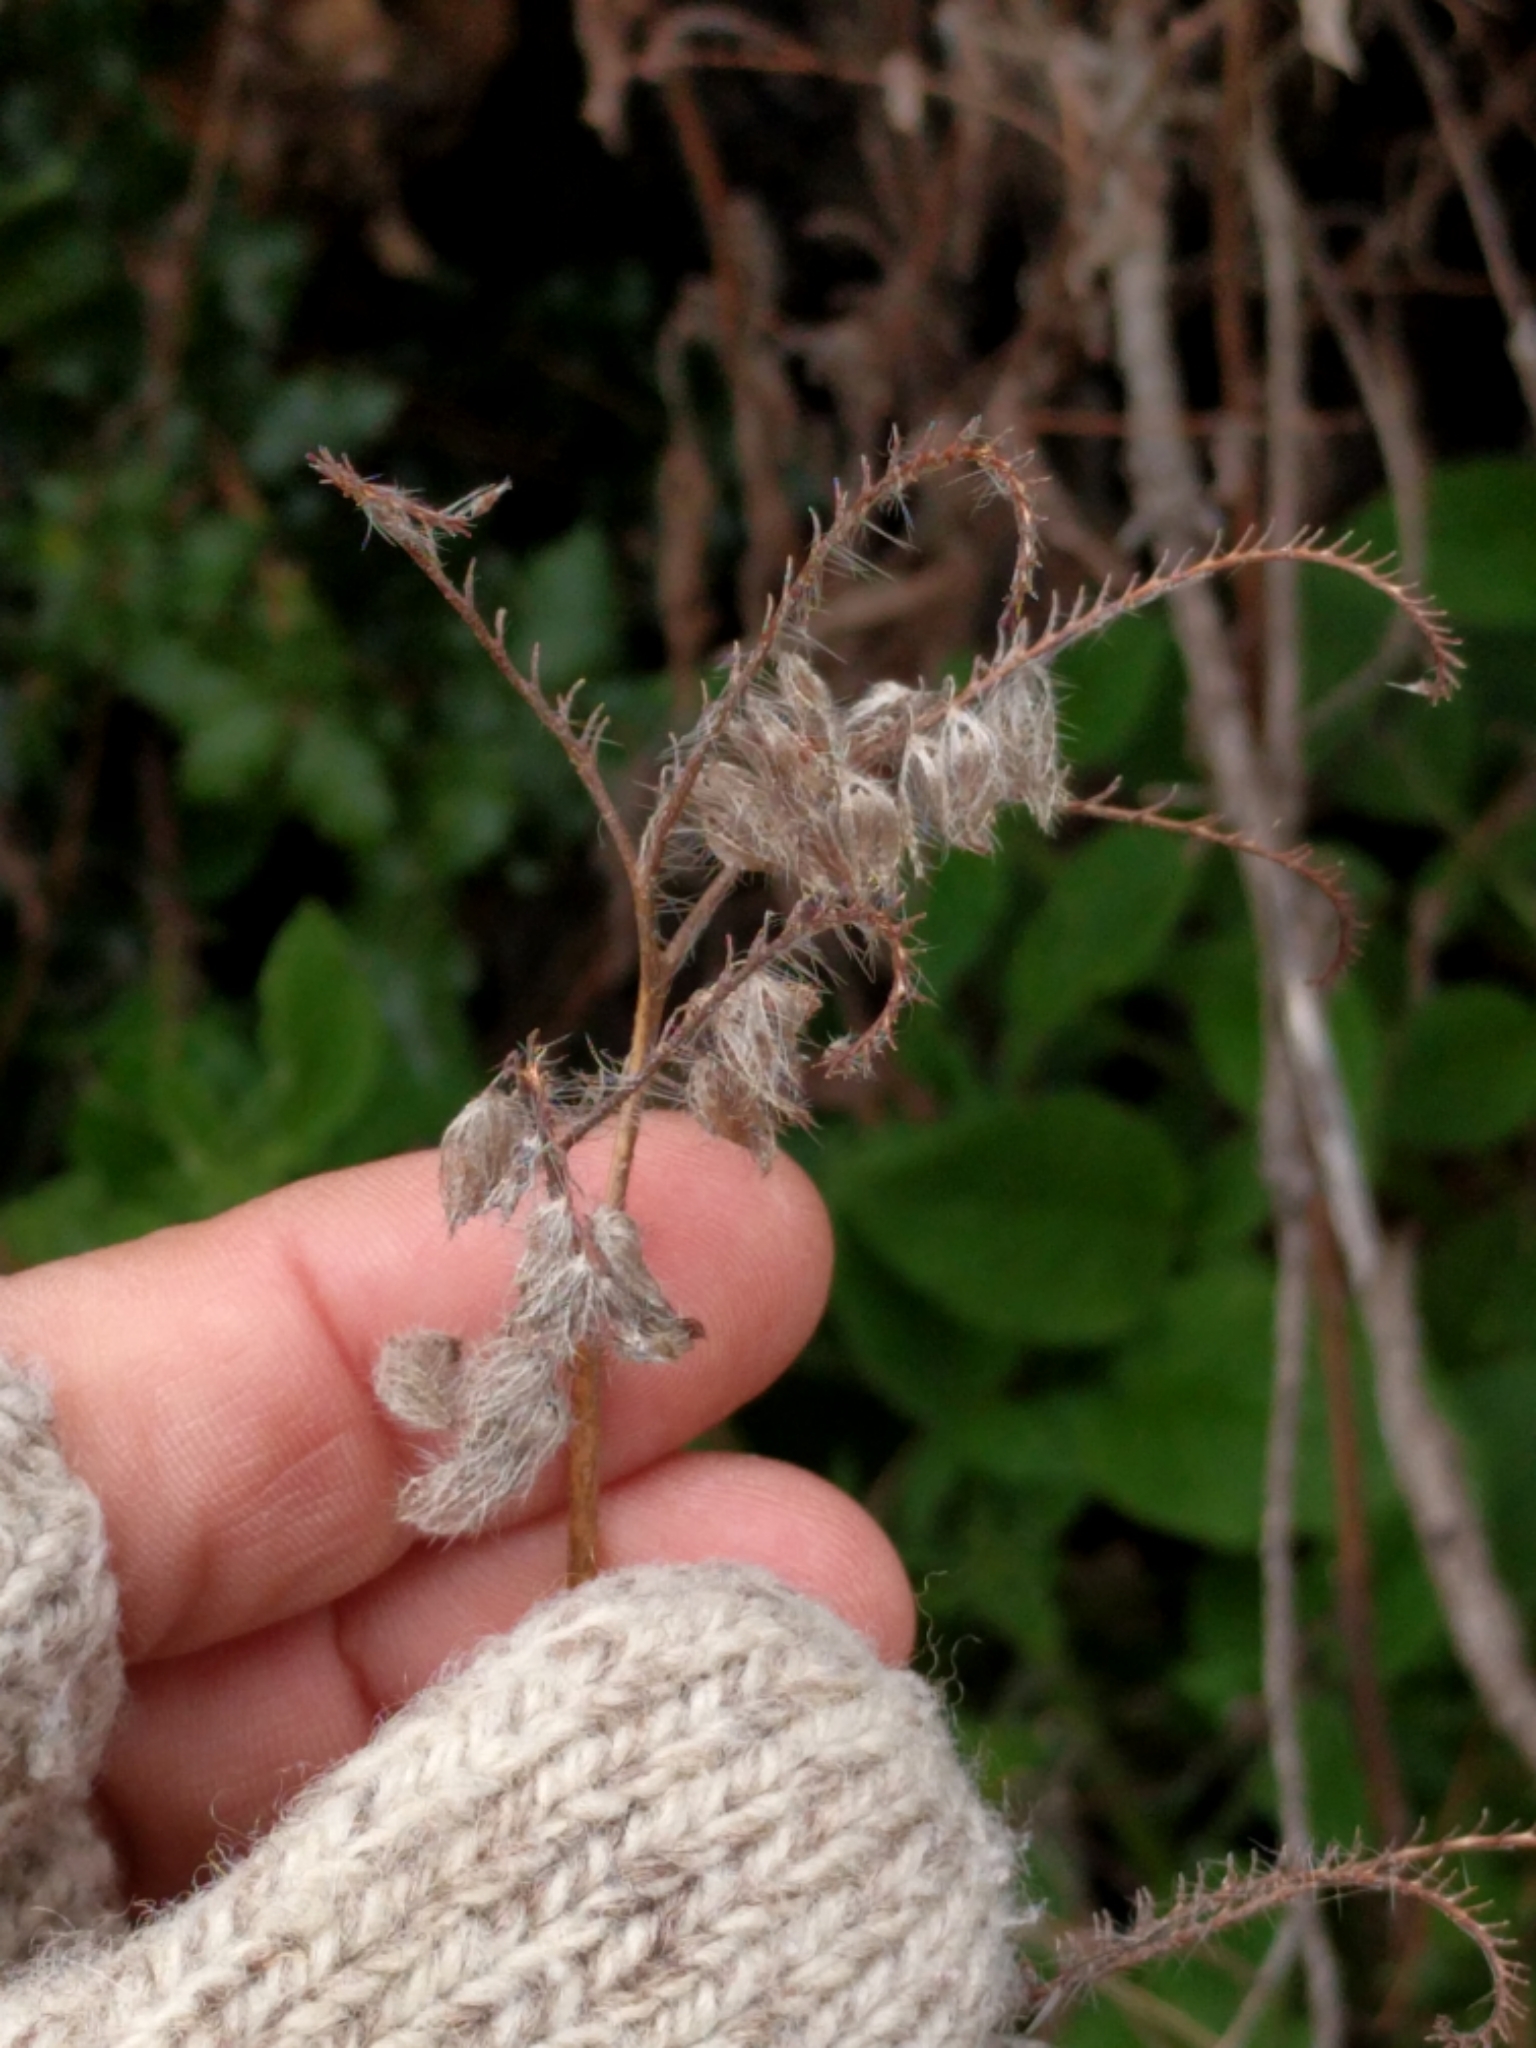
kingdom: Plantae
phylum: Tracheophyta
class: Magnoliopsida
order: Boraginales
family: Hydrophyllaceae
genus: Phacelia
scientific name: Phacelia nemoralis
